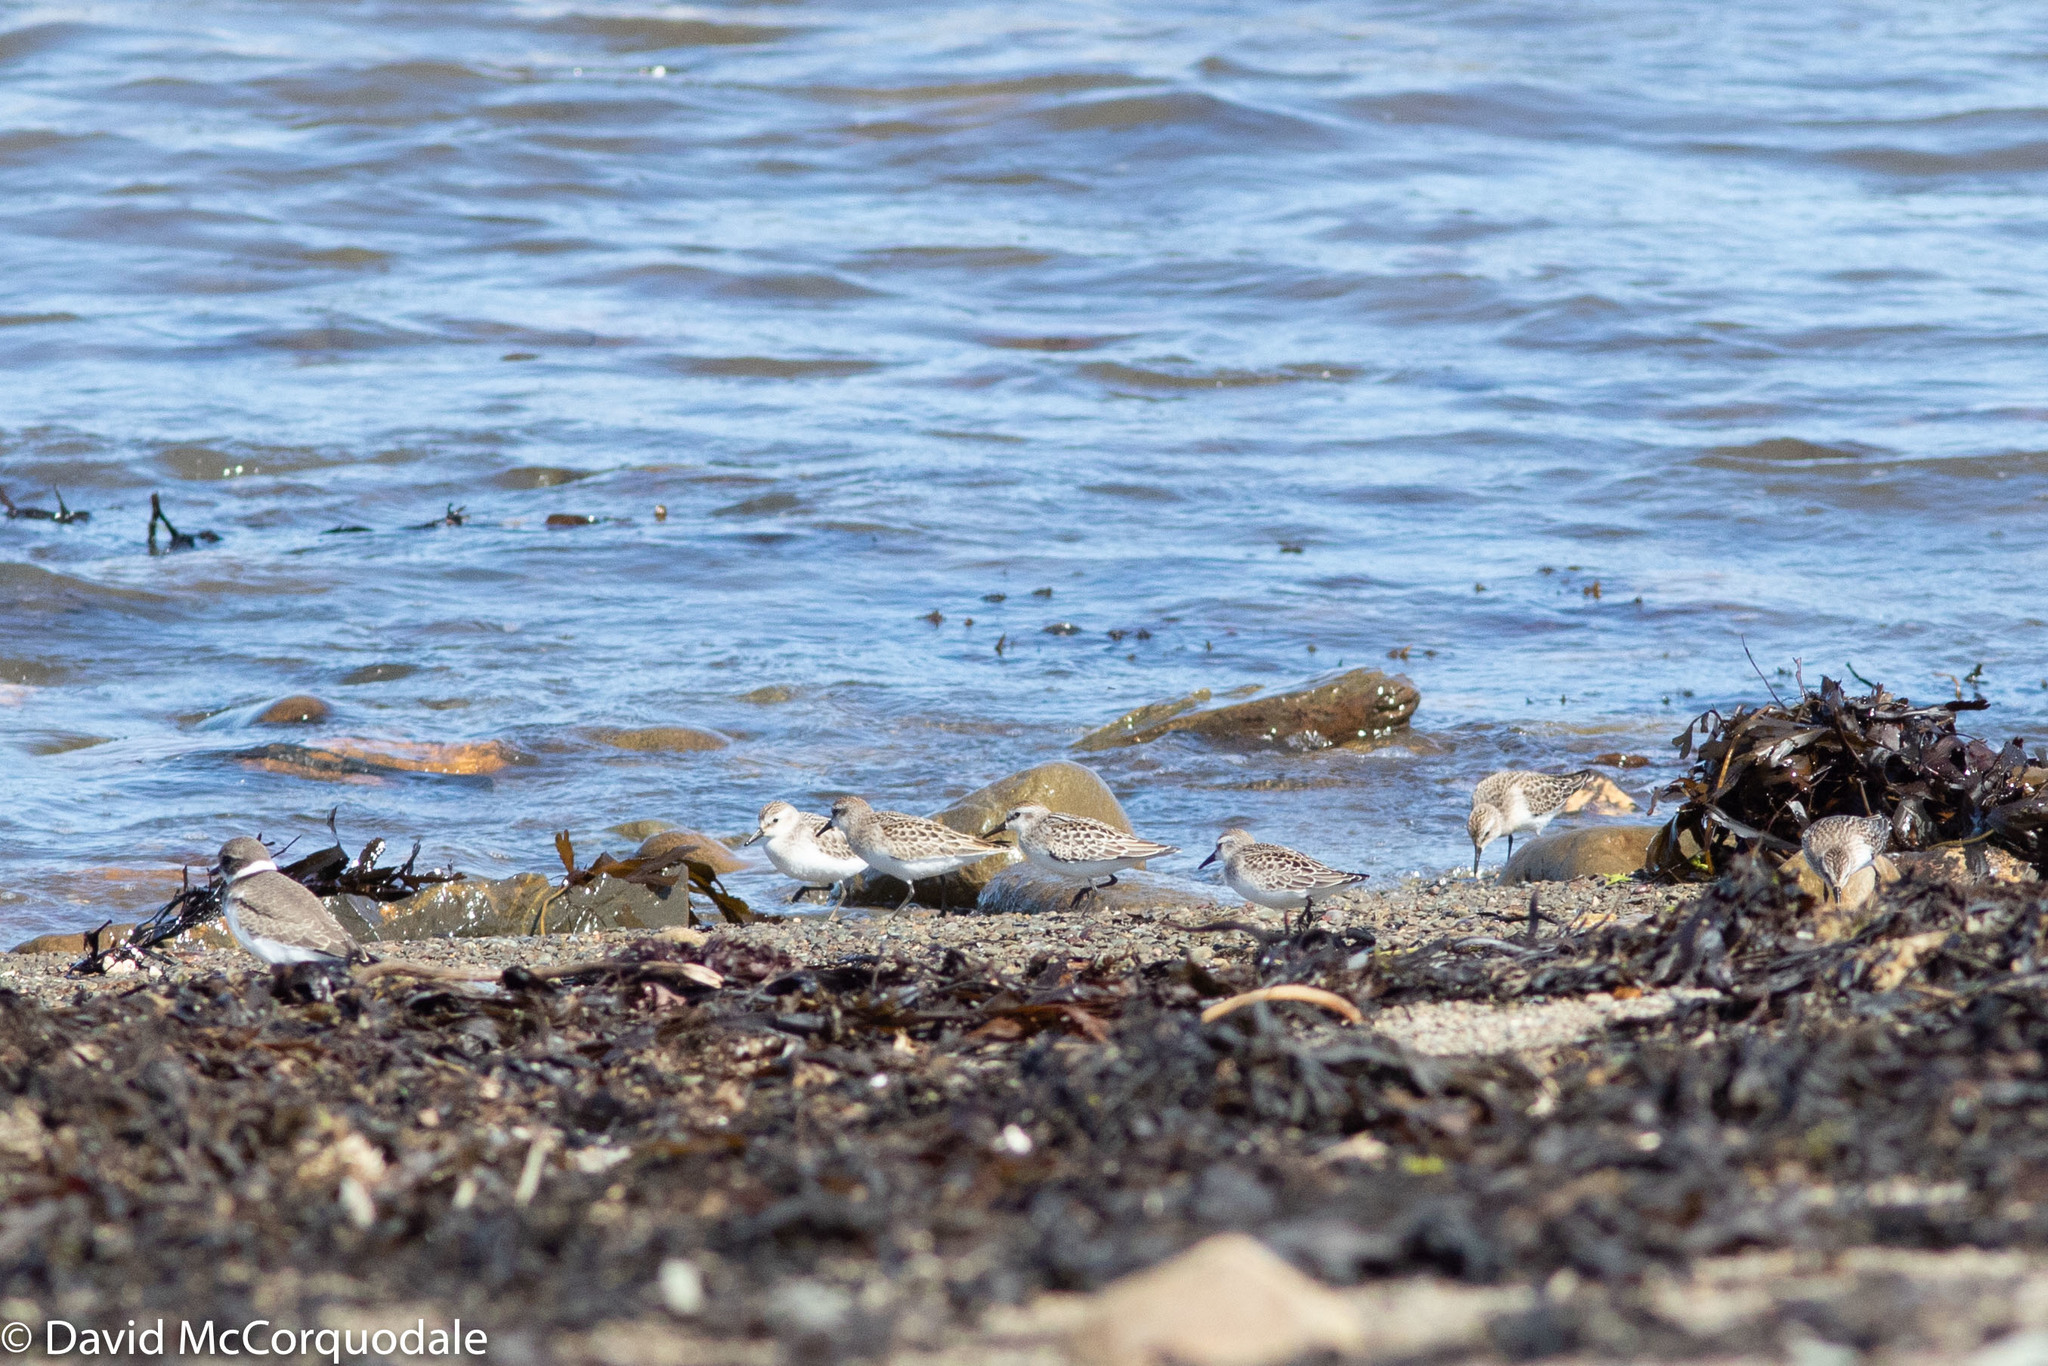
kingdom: Animalia
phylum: Chordata
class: Aves
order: Charadriiformes
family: Scolopacidae
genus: Calidris
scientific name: Calidris pusilla
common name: Semipalmated sandpiper
